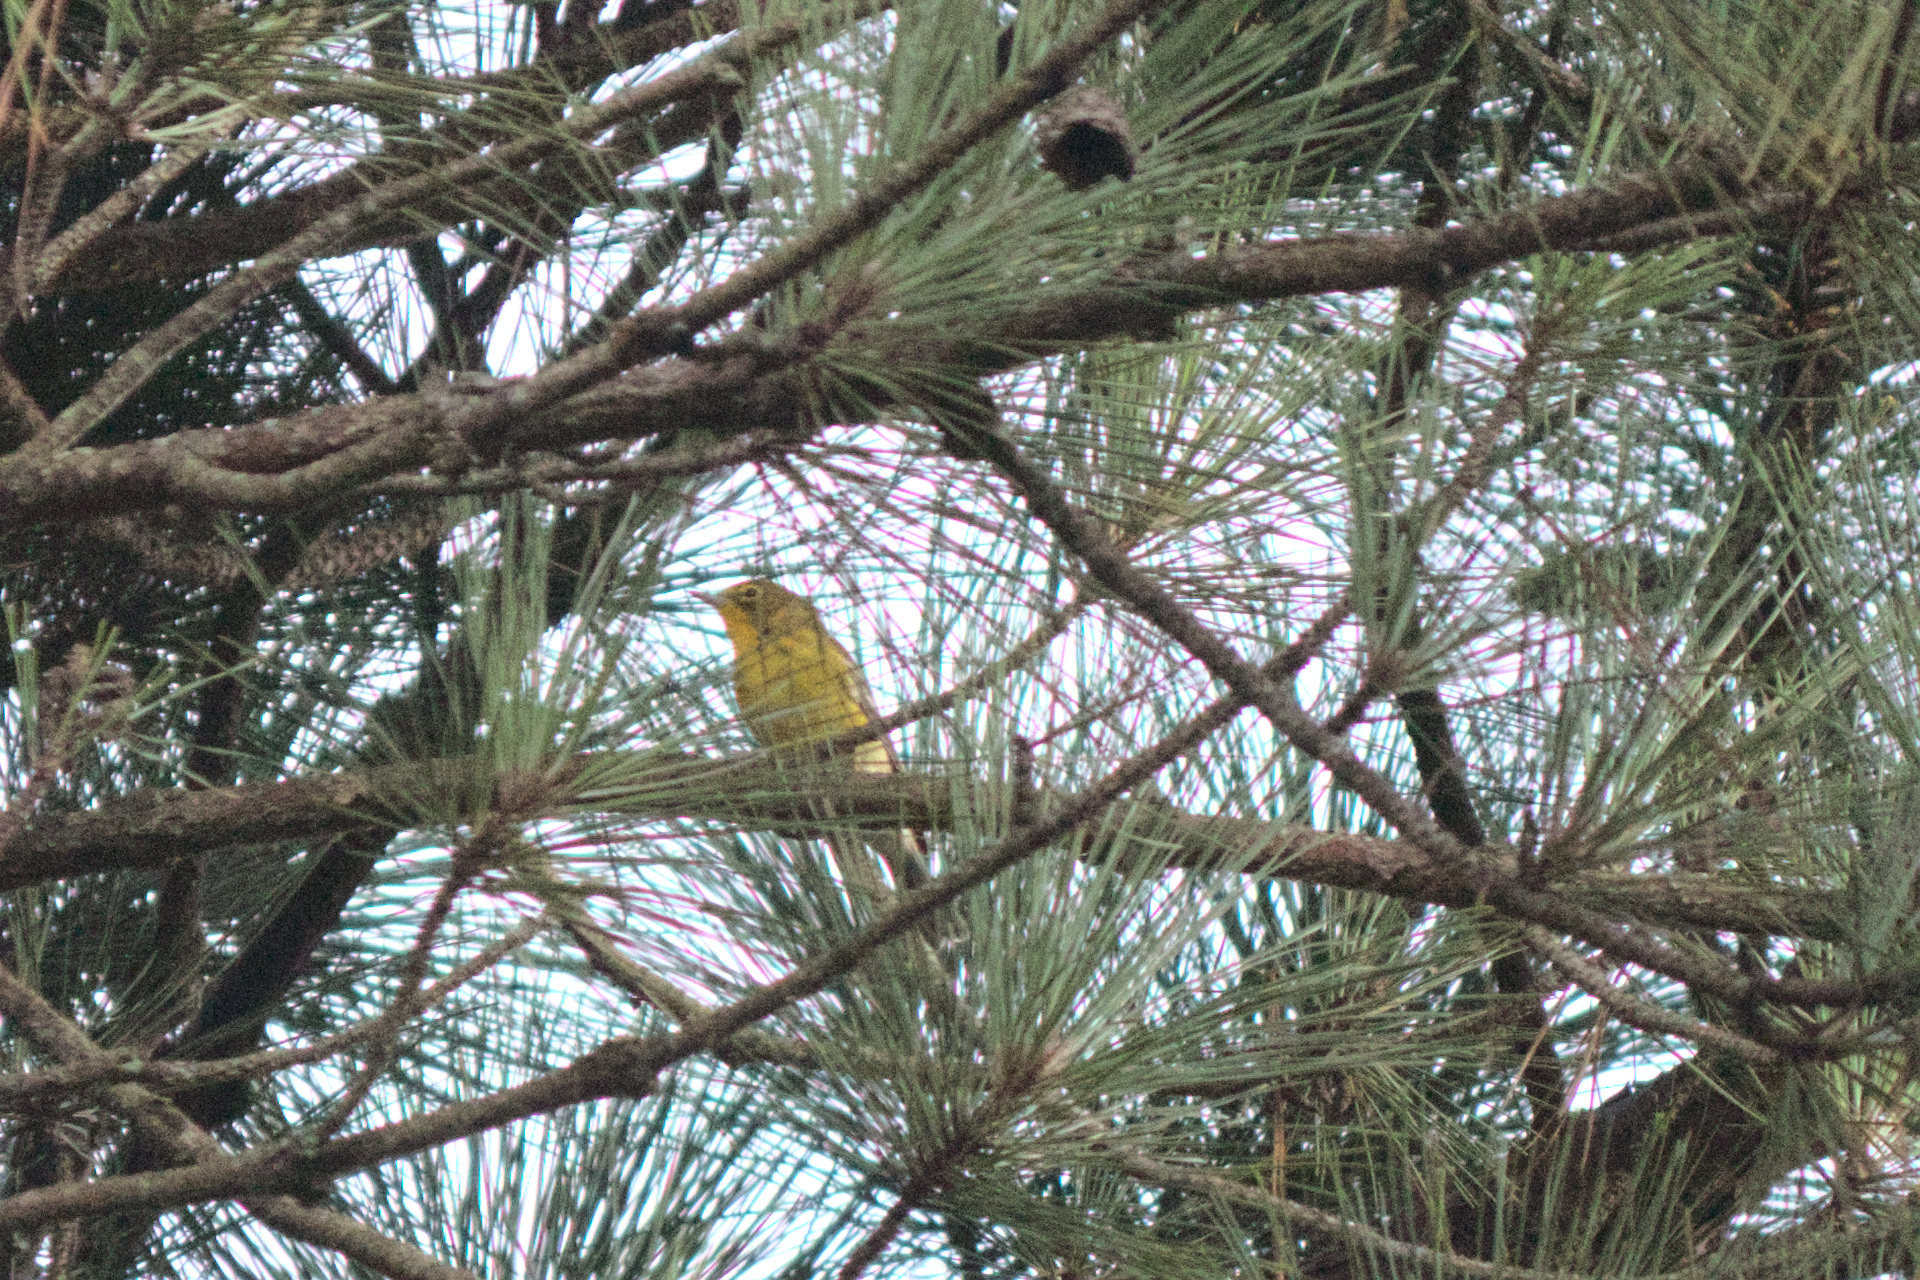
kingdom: Animalia
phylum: Chordata
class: Aves
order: Passeriformes
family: Parulidae
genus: Setophaga
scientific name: Setophaga pinus
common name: Pine warbler
